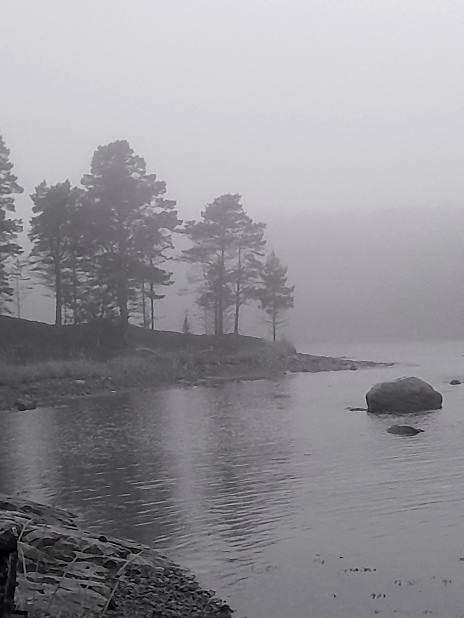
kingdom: Plantae
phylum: Tracheophyta
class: Pinopsida
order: Pinales
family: Pinaceae
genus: Pinus
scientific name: Pinus sylvestris
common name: Scots pine
